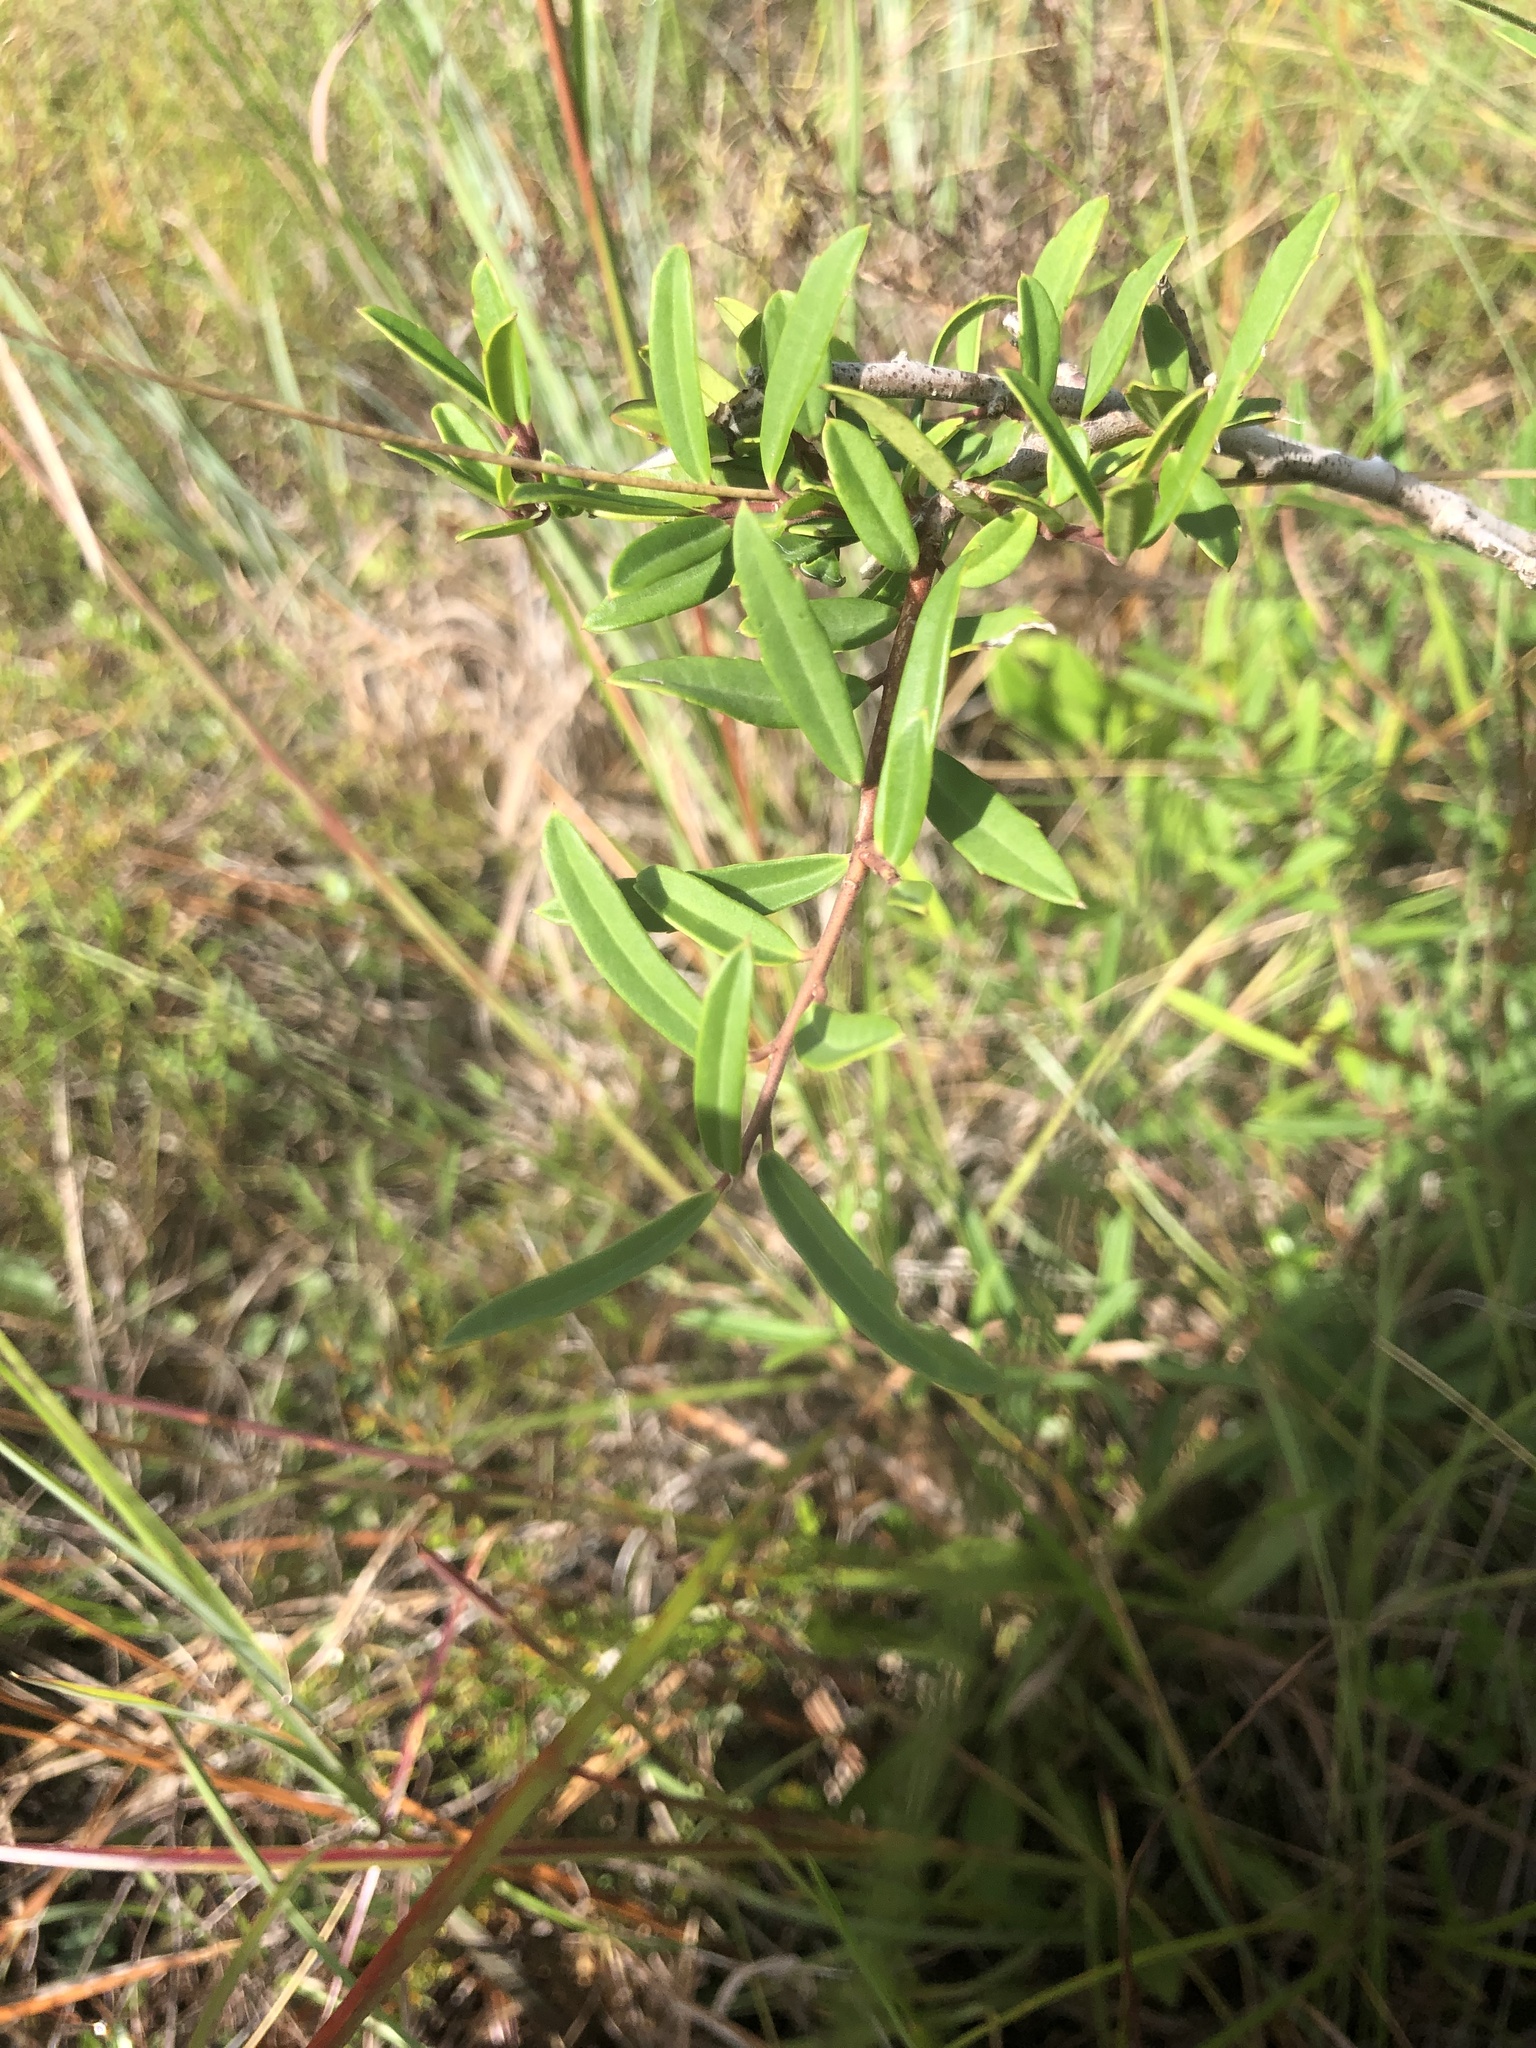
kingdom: Plantae
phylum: Tracheophyta
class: Magnoliopsida
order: Aquifoliales
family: Aquifoliaceae
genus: Ilex
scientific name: Ilex myrtifolia
